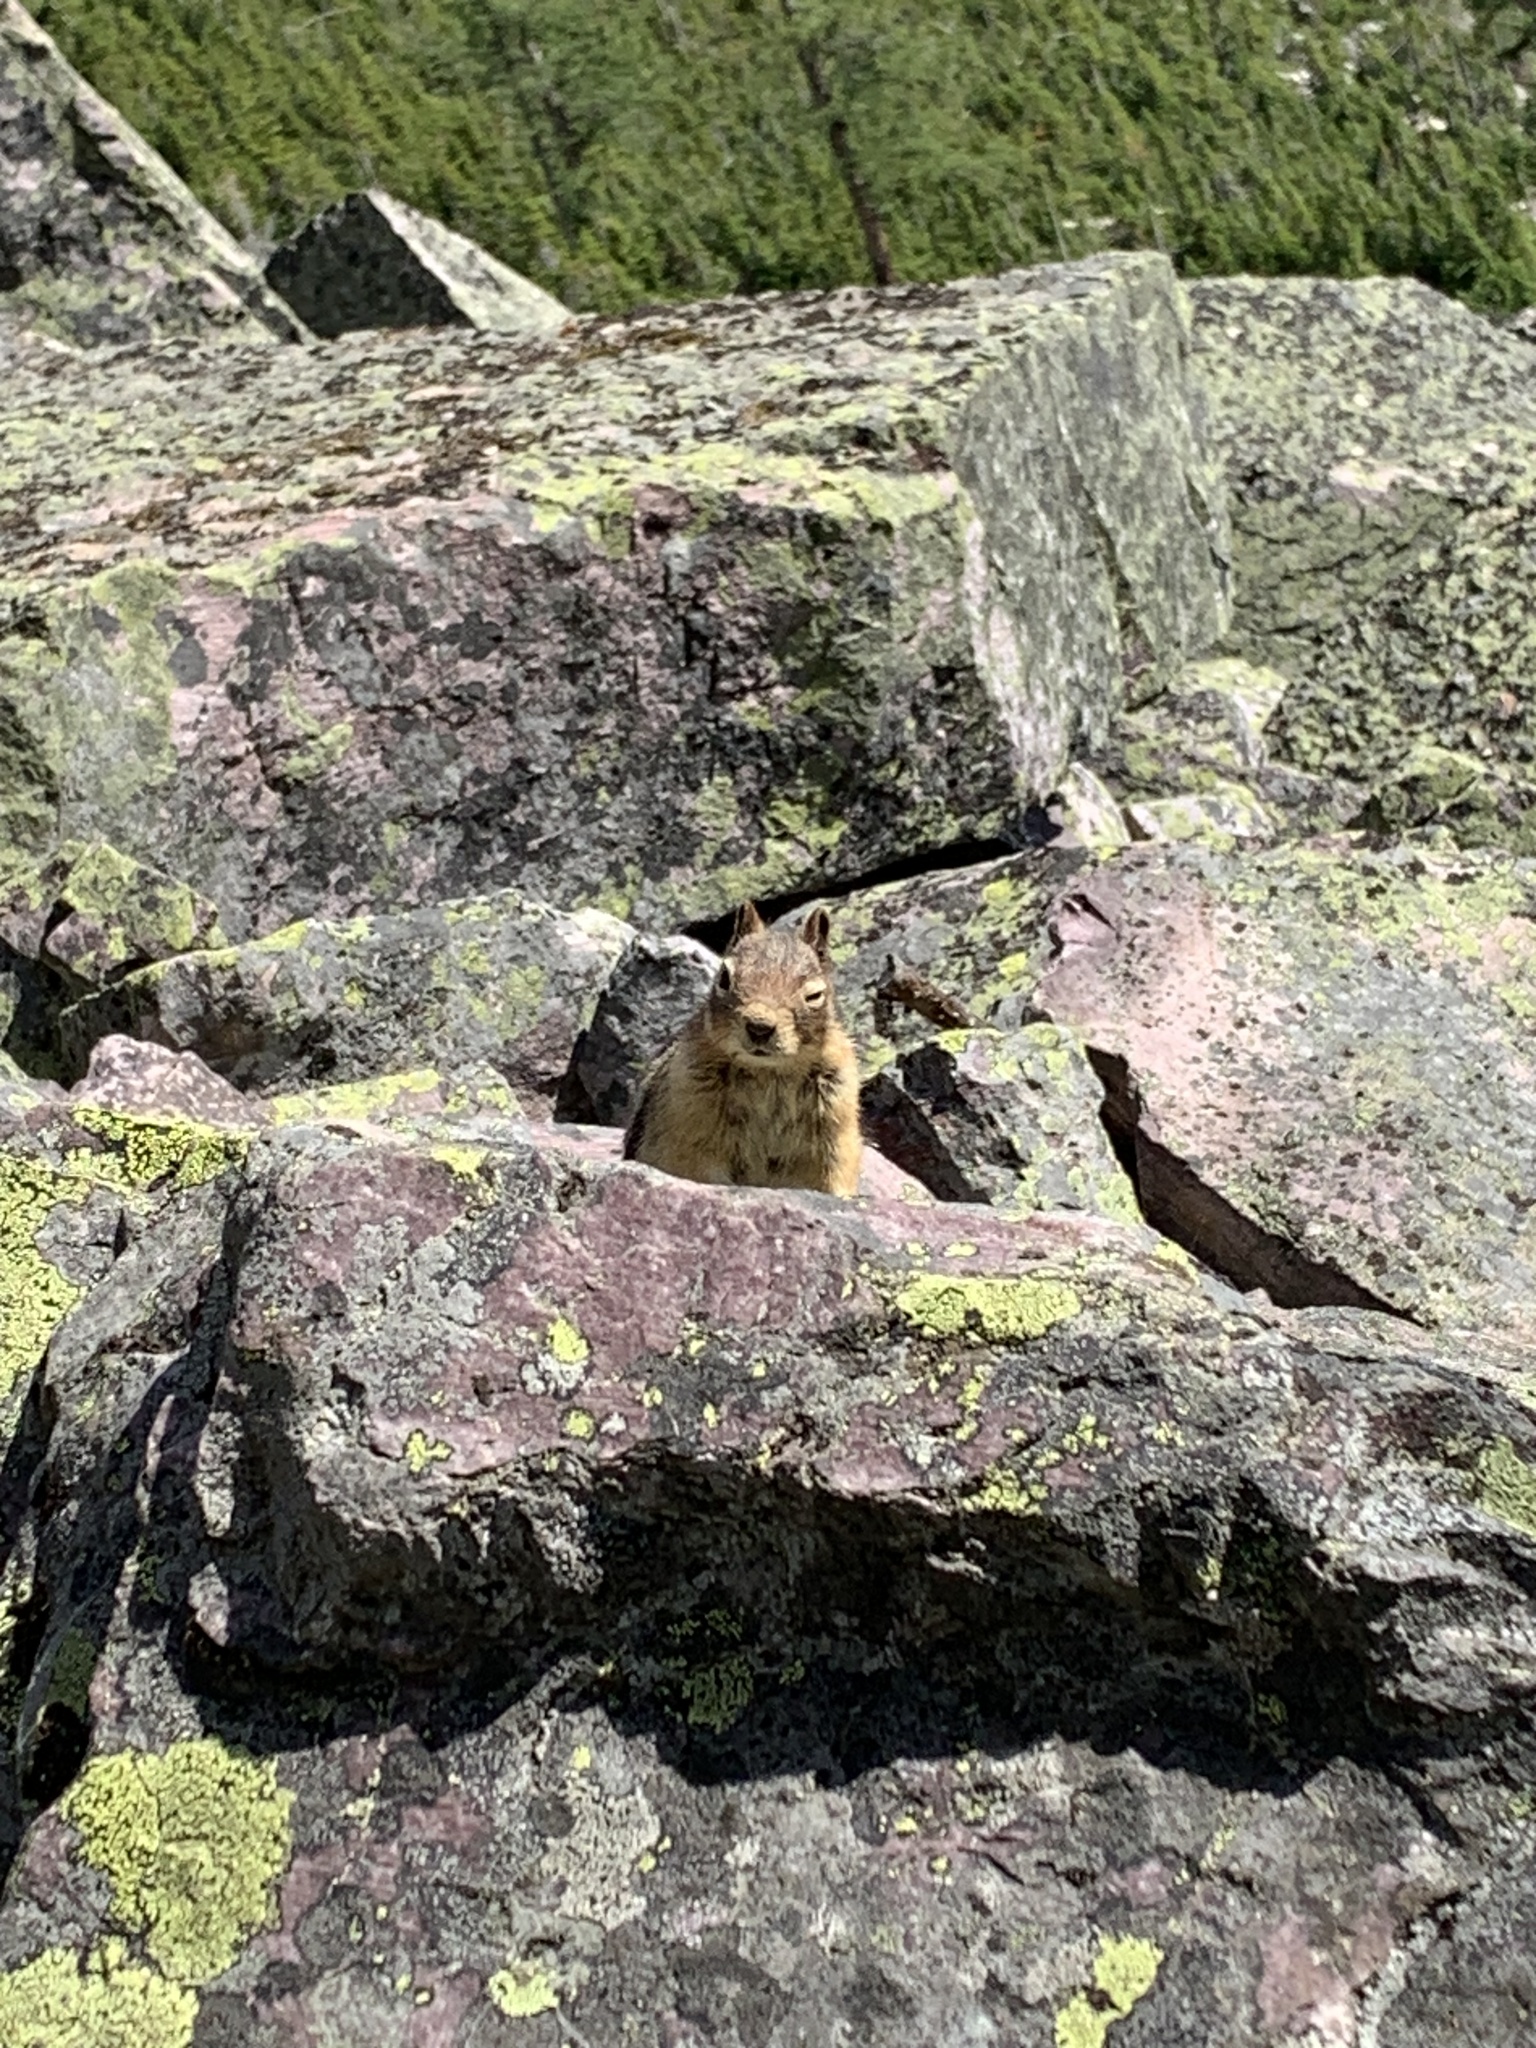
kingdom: Animalia
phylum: Chordata
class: Mammalia
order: Rodentia
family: Sciuridae
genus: Callospermophilus
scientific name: Callospermophilus lateralis
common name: Golden-mantled ground squirrel
